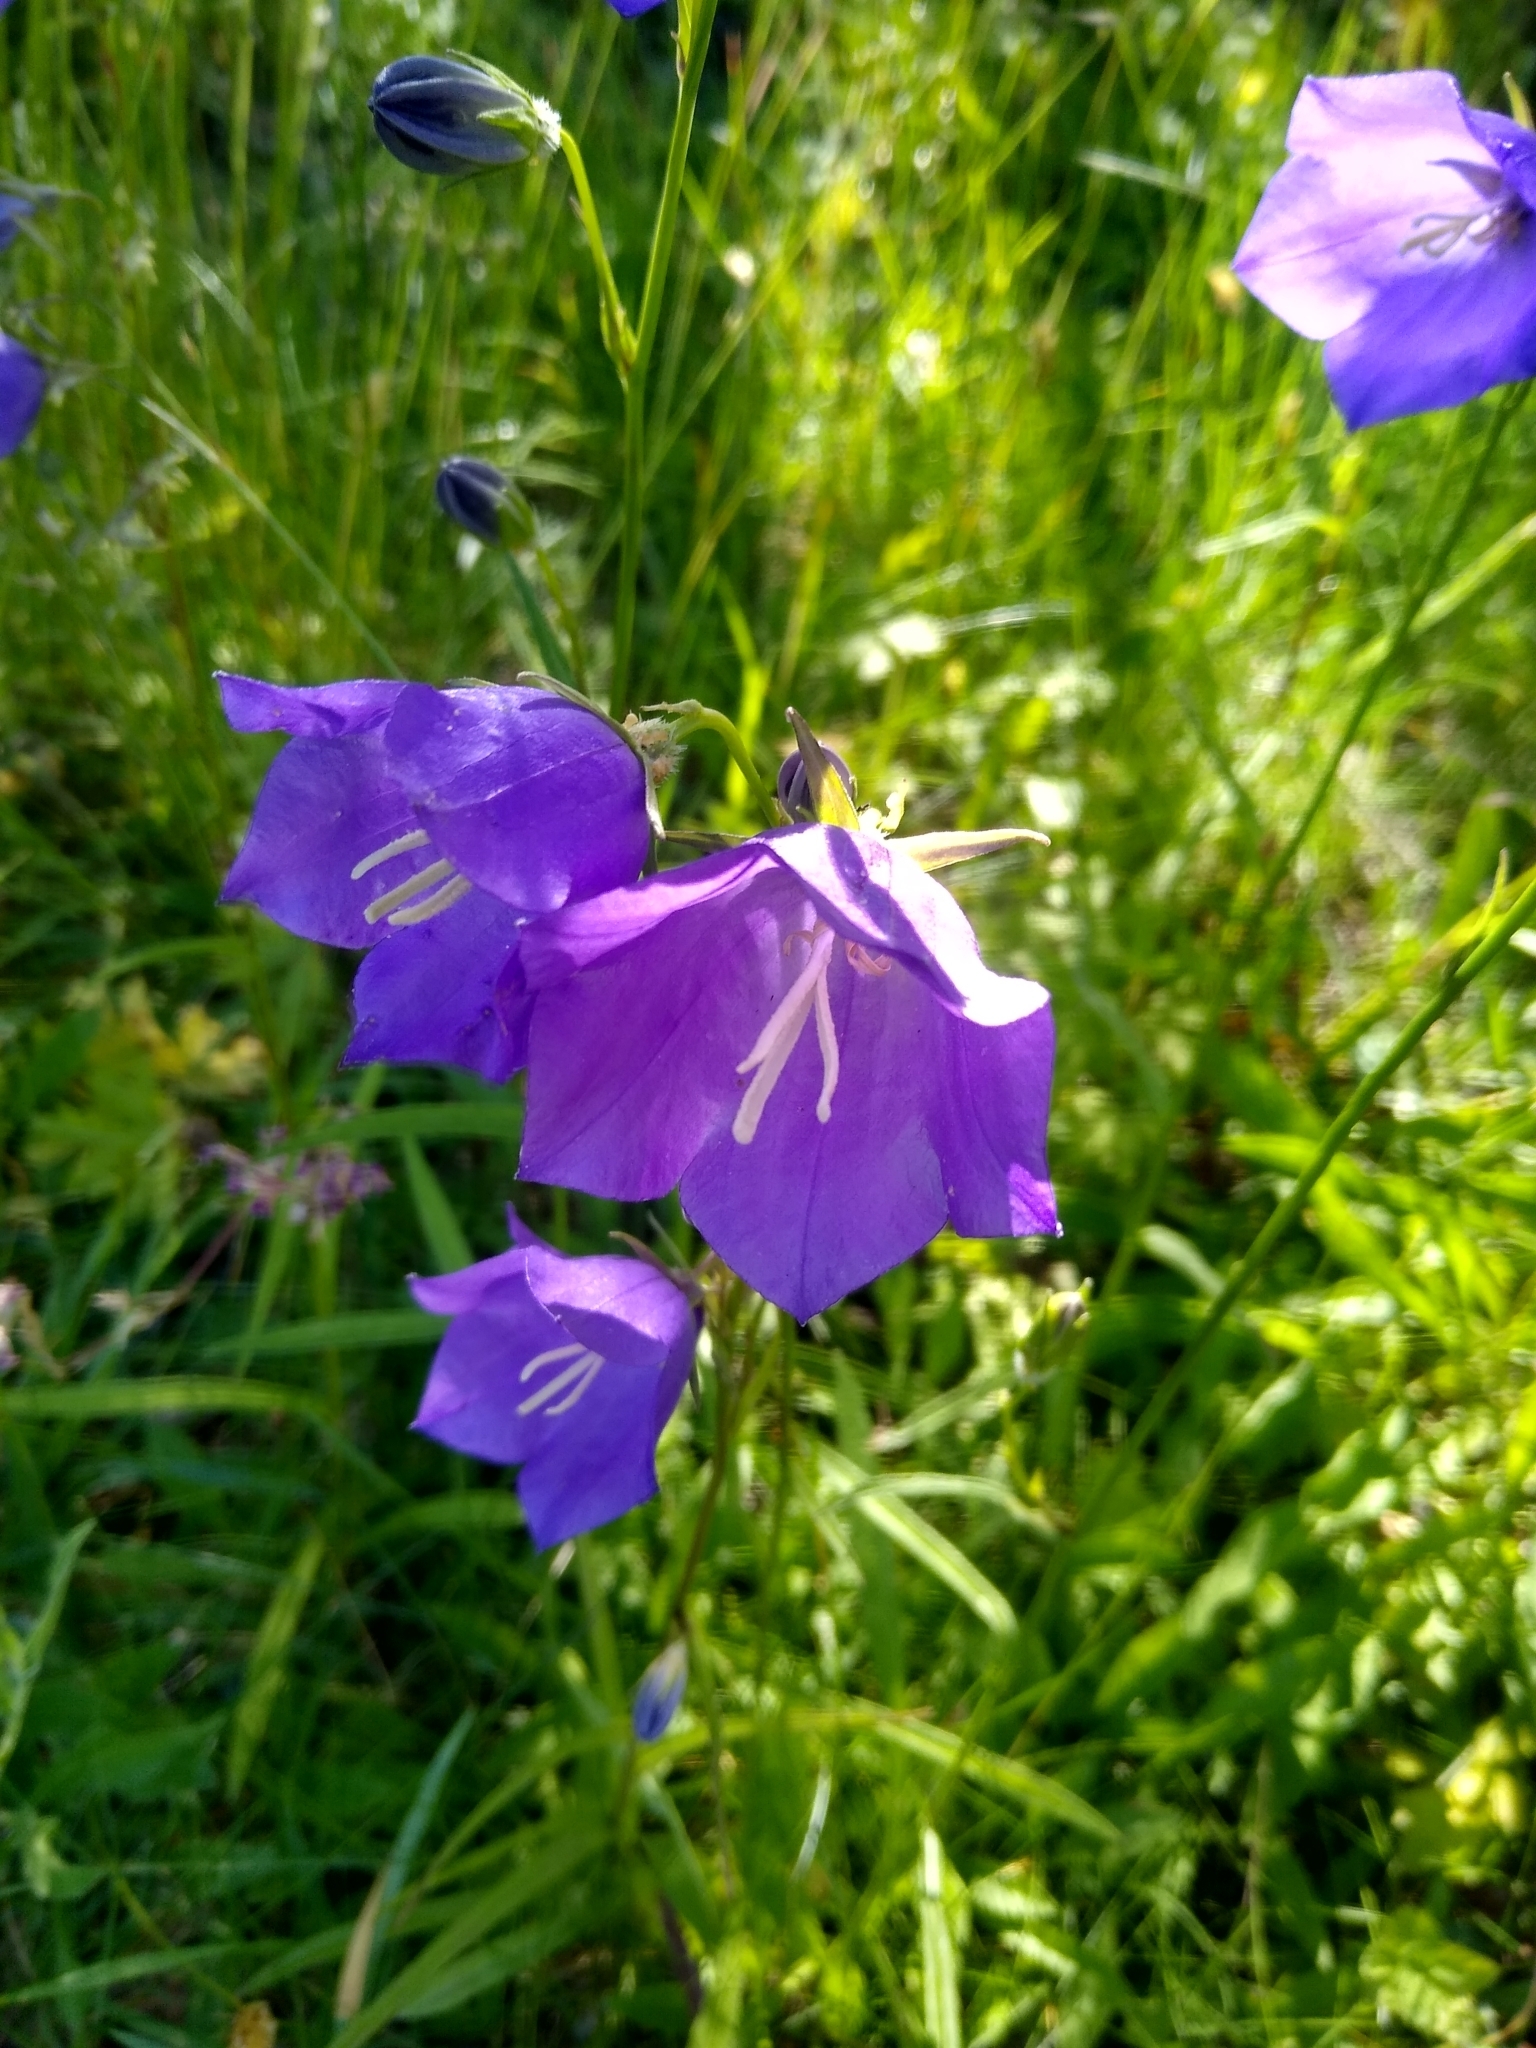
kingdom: Plantae
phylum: Tracheophyta
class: Magnoliopsida
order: Asterales
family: Campanulaceae
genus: Campanula
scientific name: Campanula persicifolia
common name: Peach-leaved bellflower
